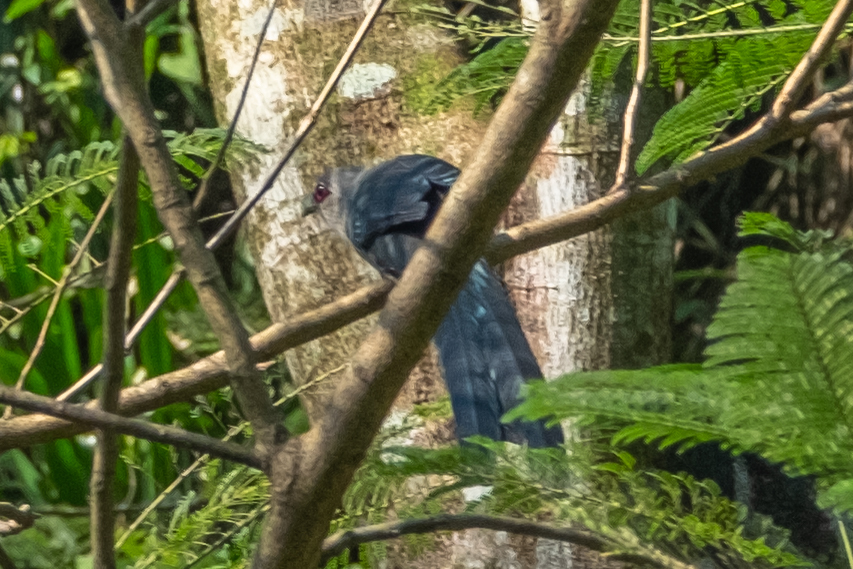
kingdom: Animalia
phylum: Chordata
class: Aves
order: Cuculiformes
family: Cuculidae
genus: Rhopodytes
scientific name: Rhopodytes tristis
